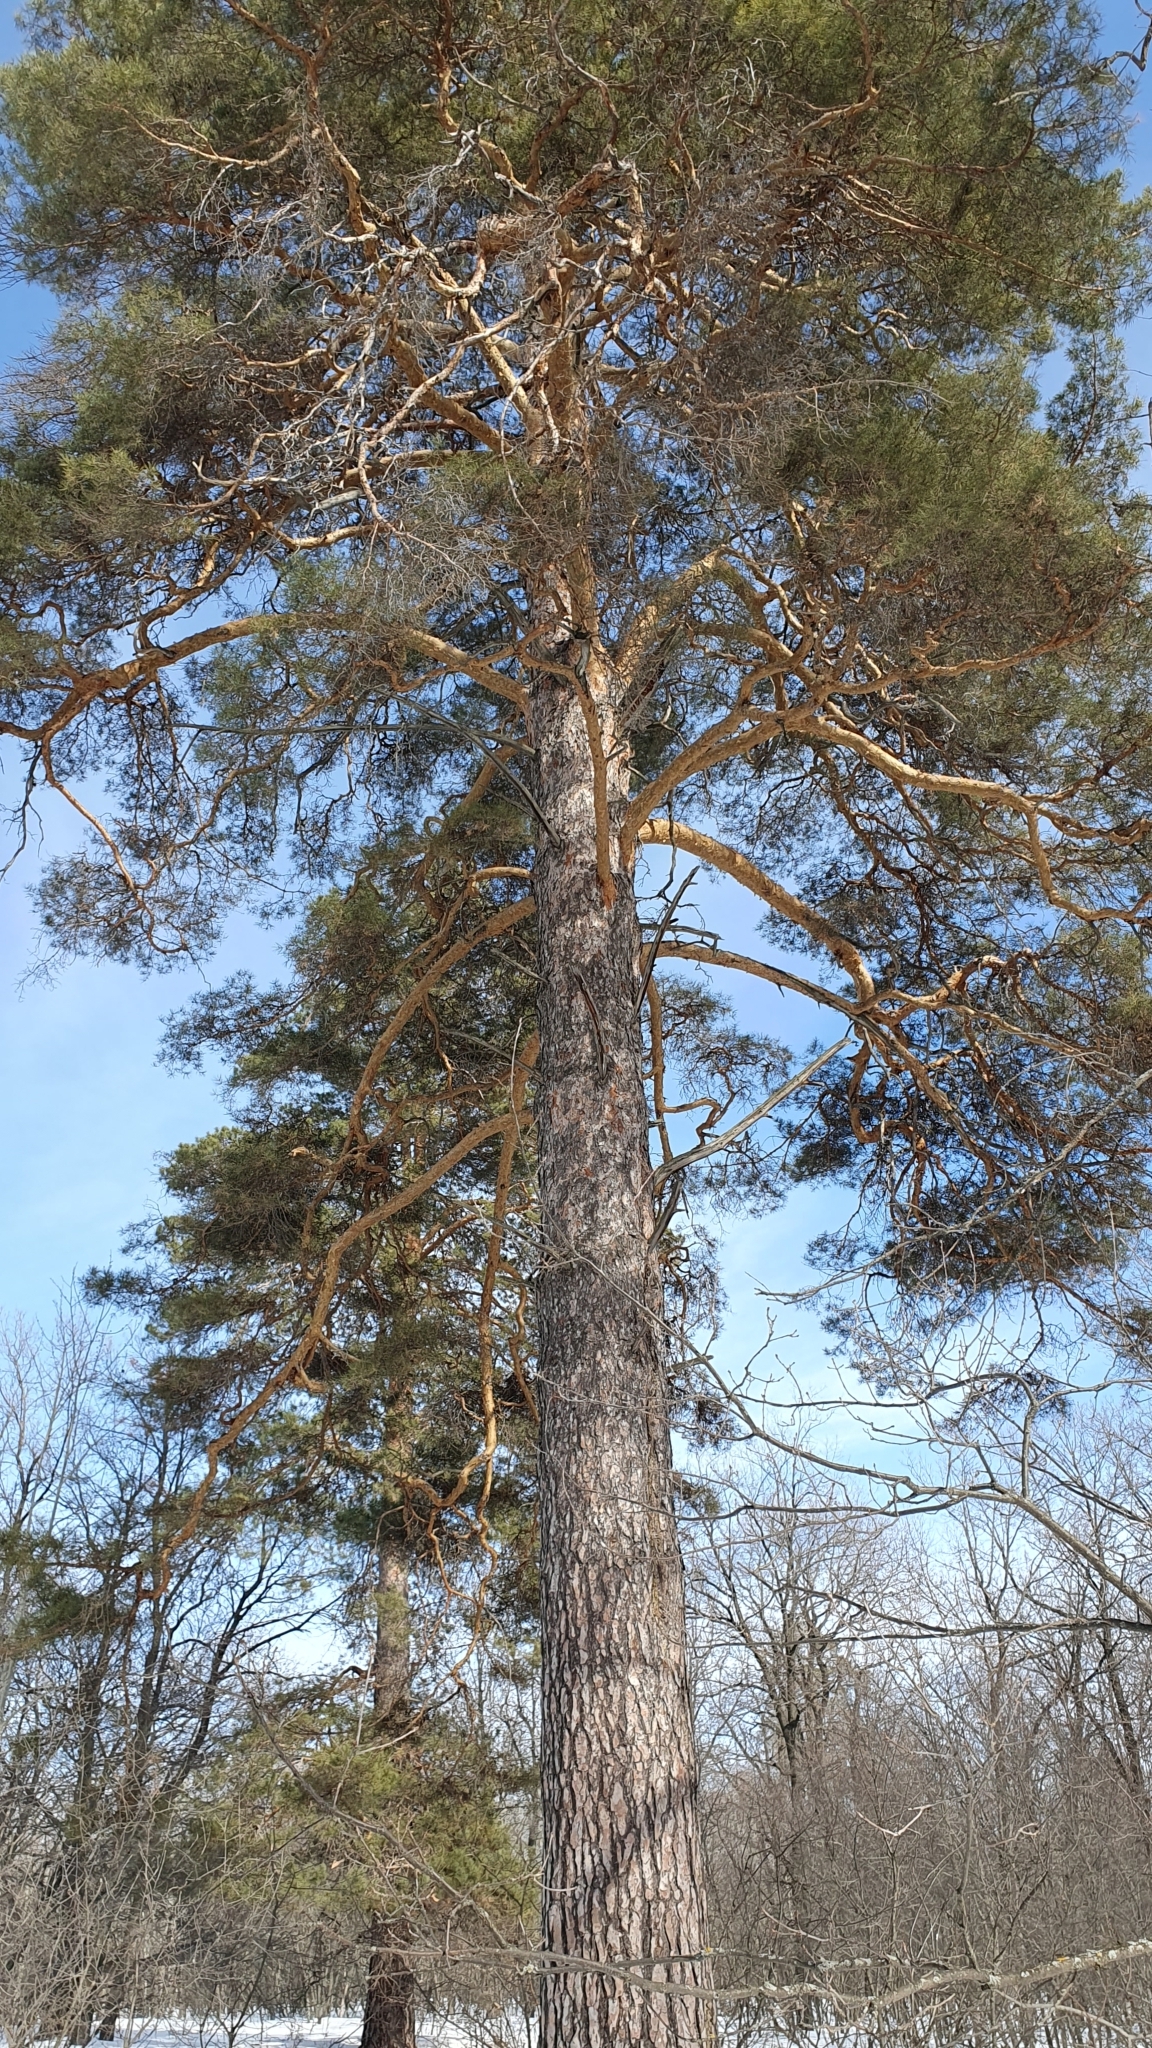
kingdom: Plantae
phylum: Tracheophyta
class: Pinopsida
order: Pinales
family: Pinaceae
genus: Pinus
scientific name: Pinus sylvestris
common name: Scots pine
